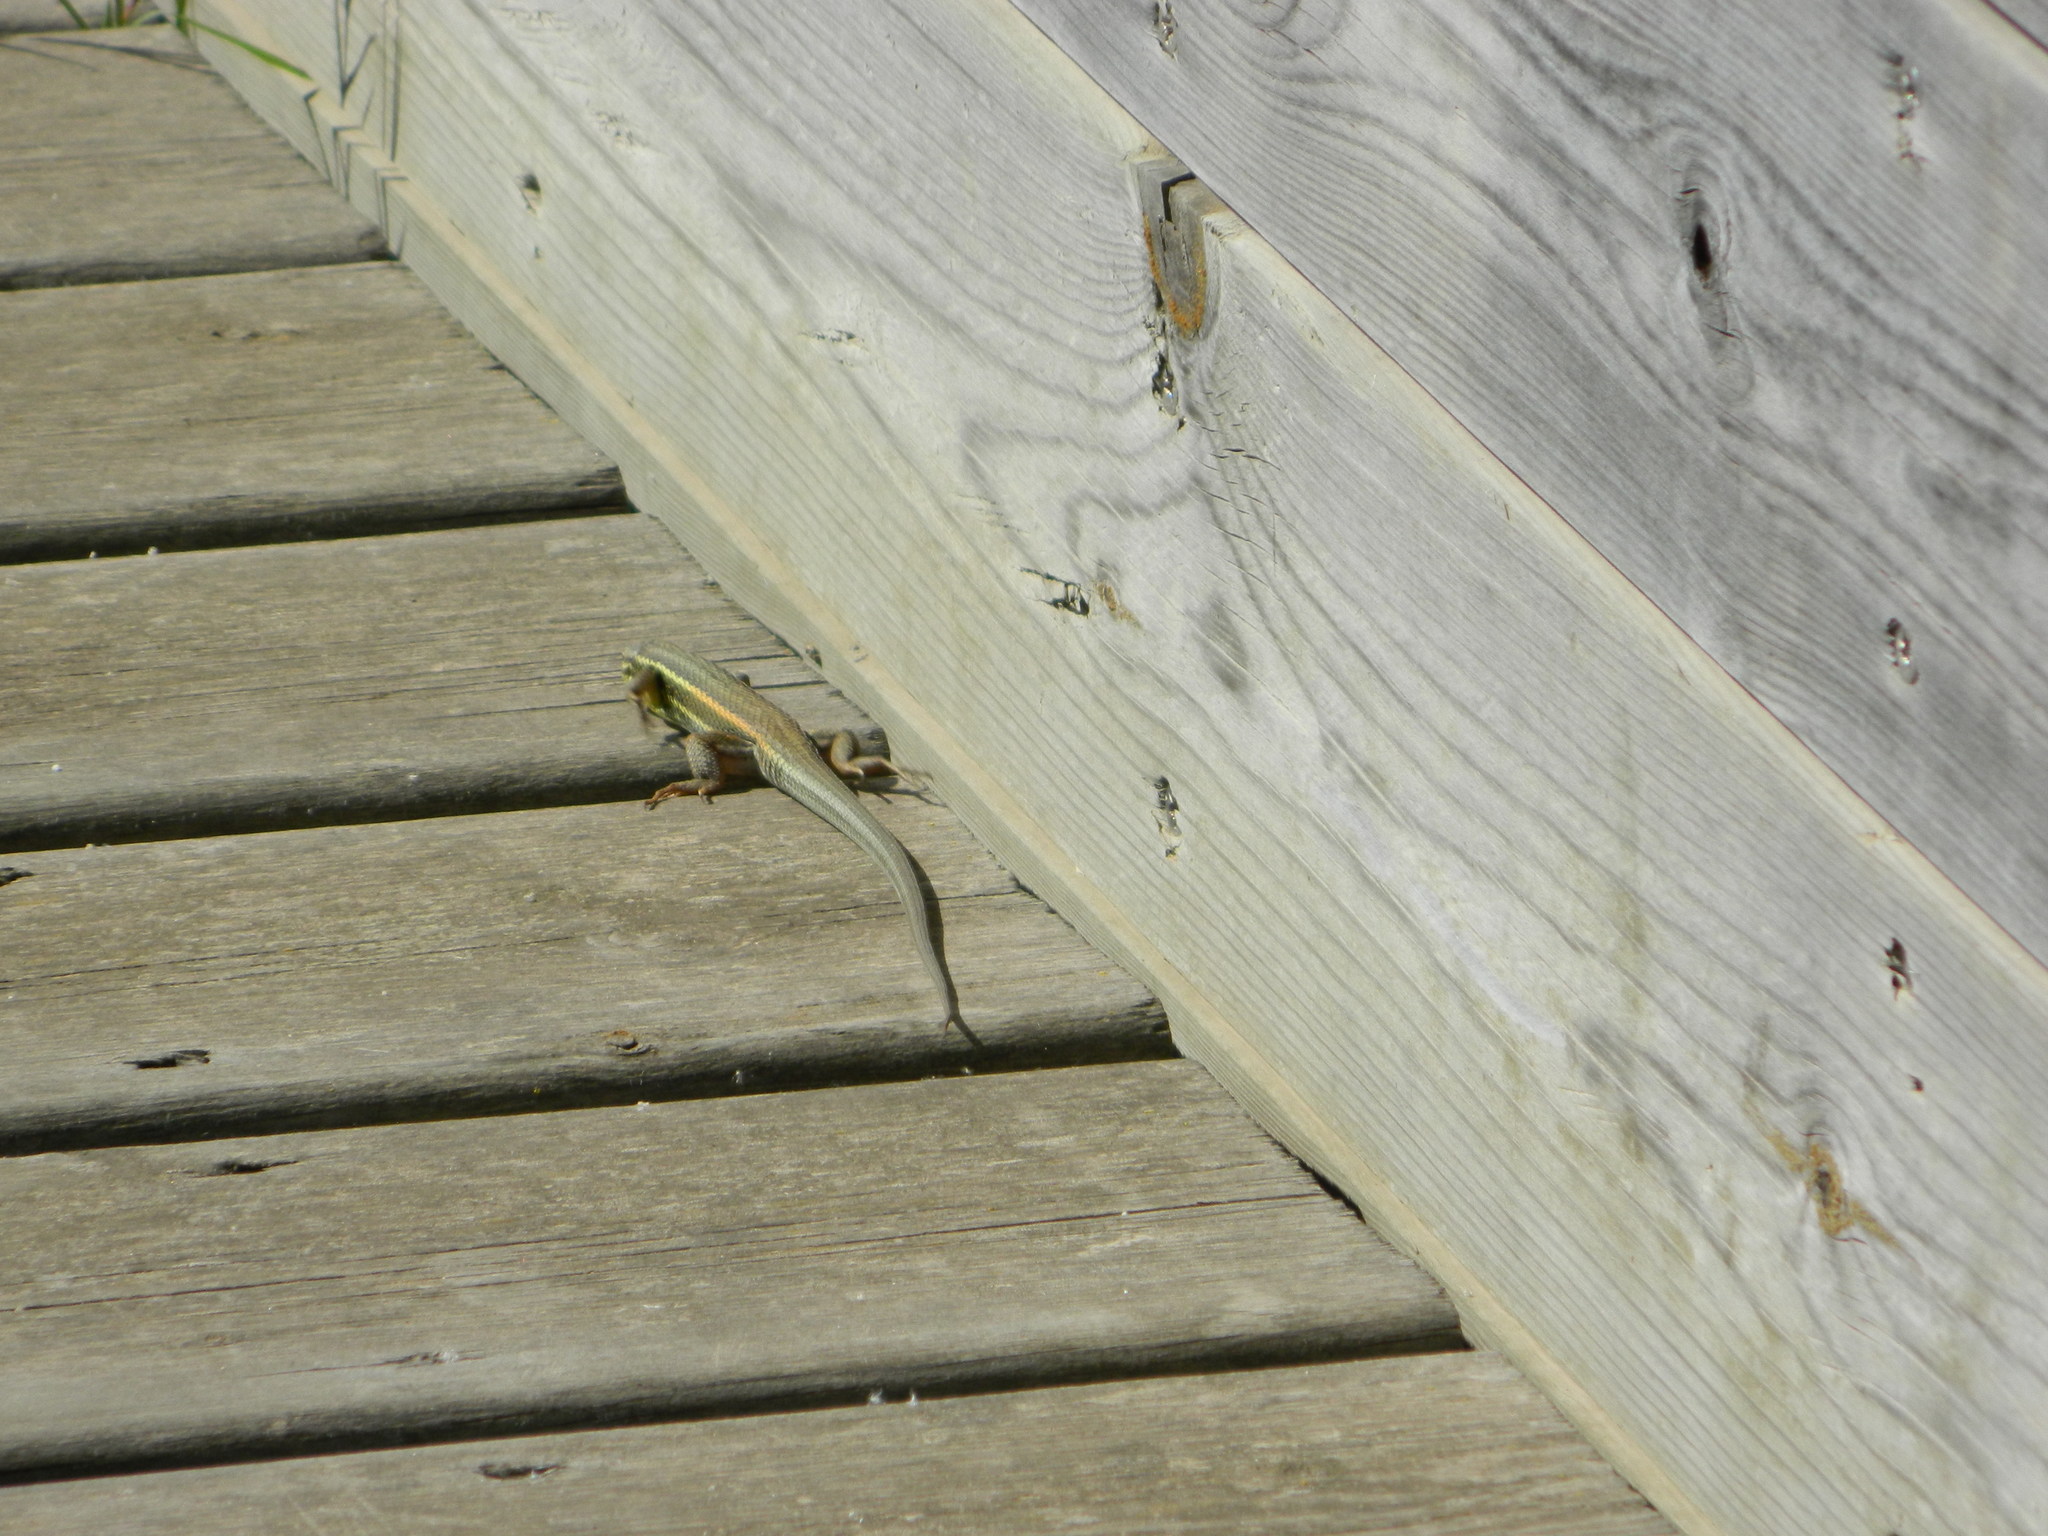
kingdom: Animalia
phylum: Chordata
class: Squamata
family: Lacertidae
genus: Psammodromus
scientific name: Psammodromus algirus
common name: Algerian psammodromus
